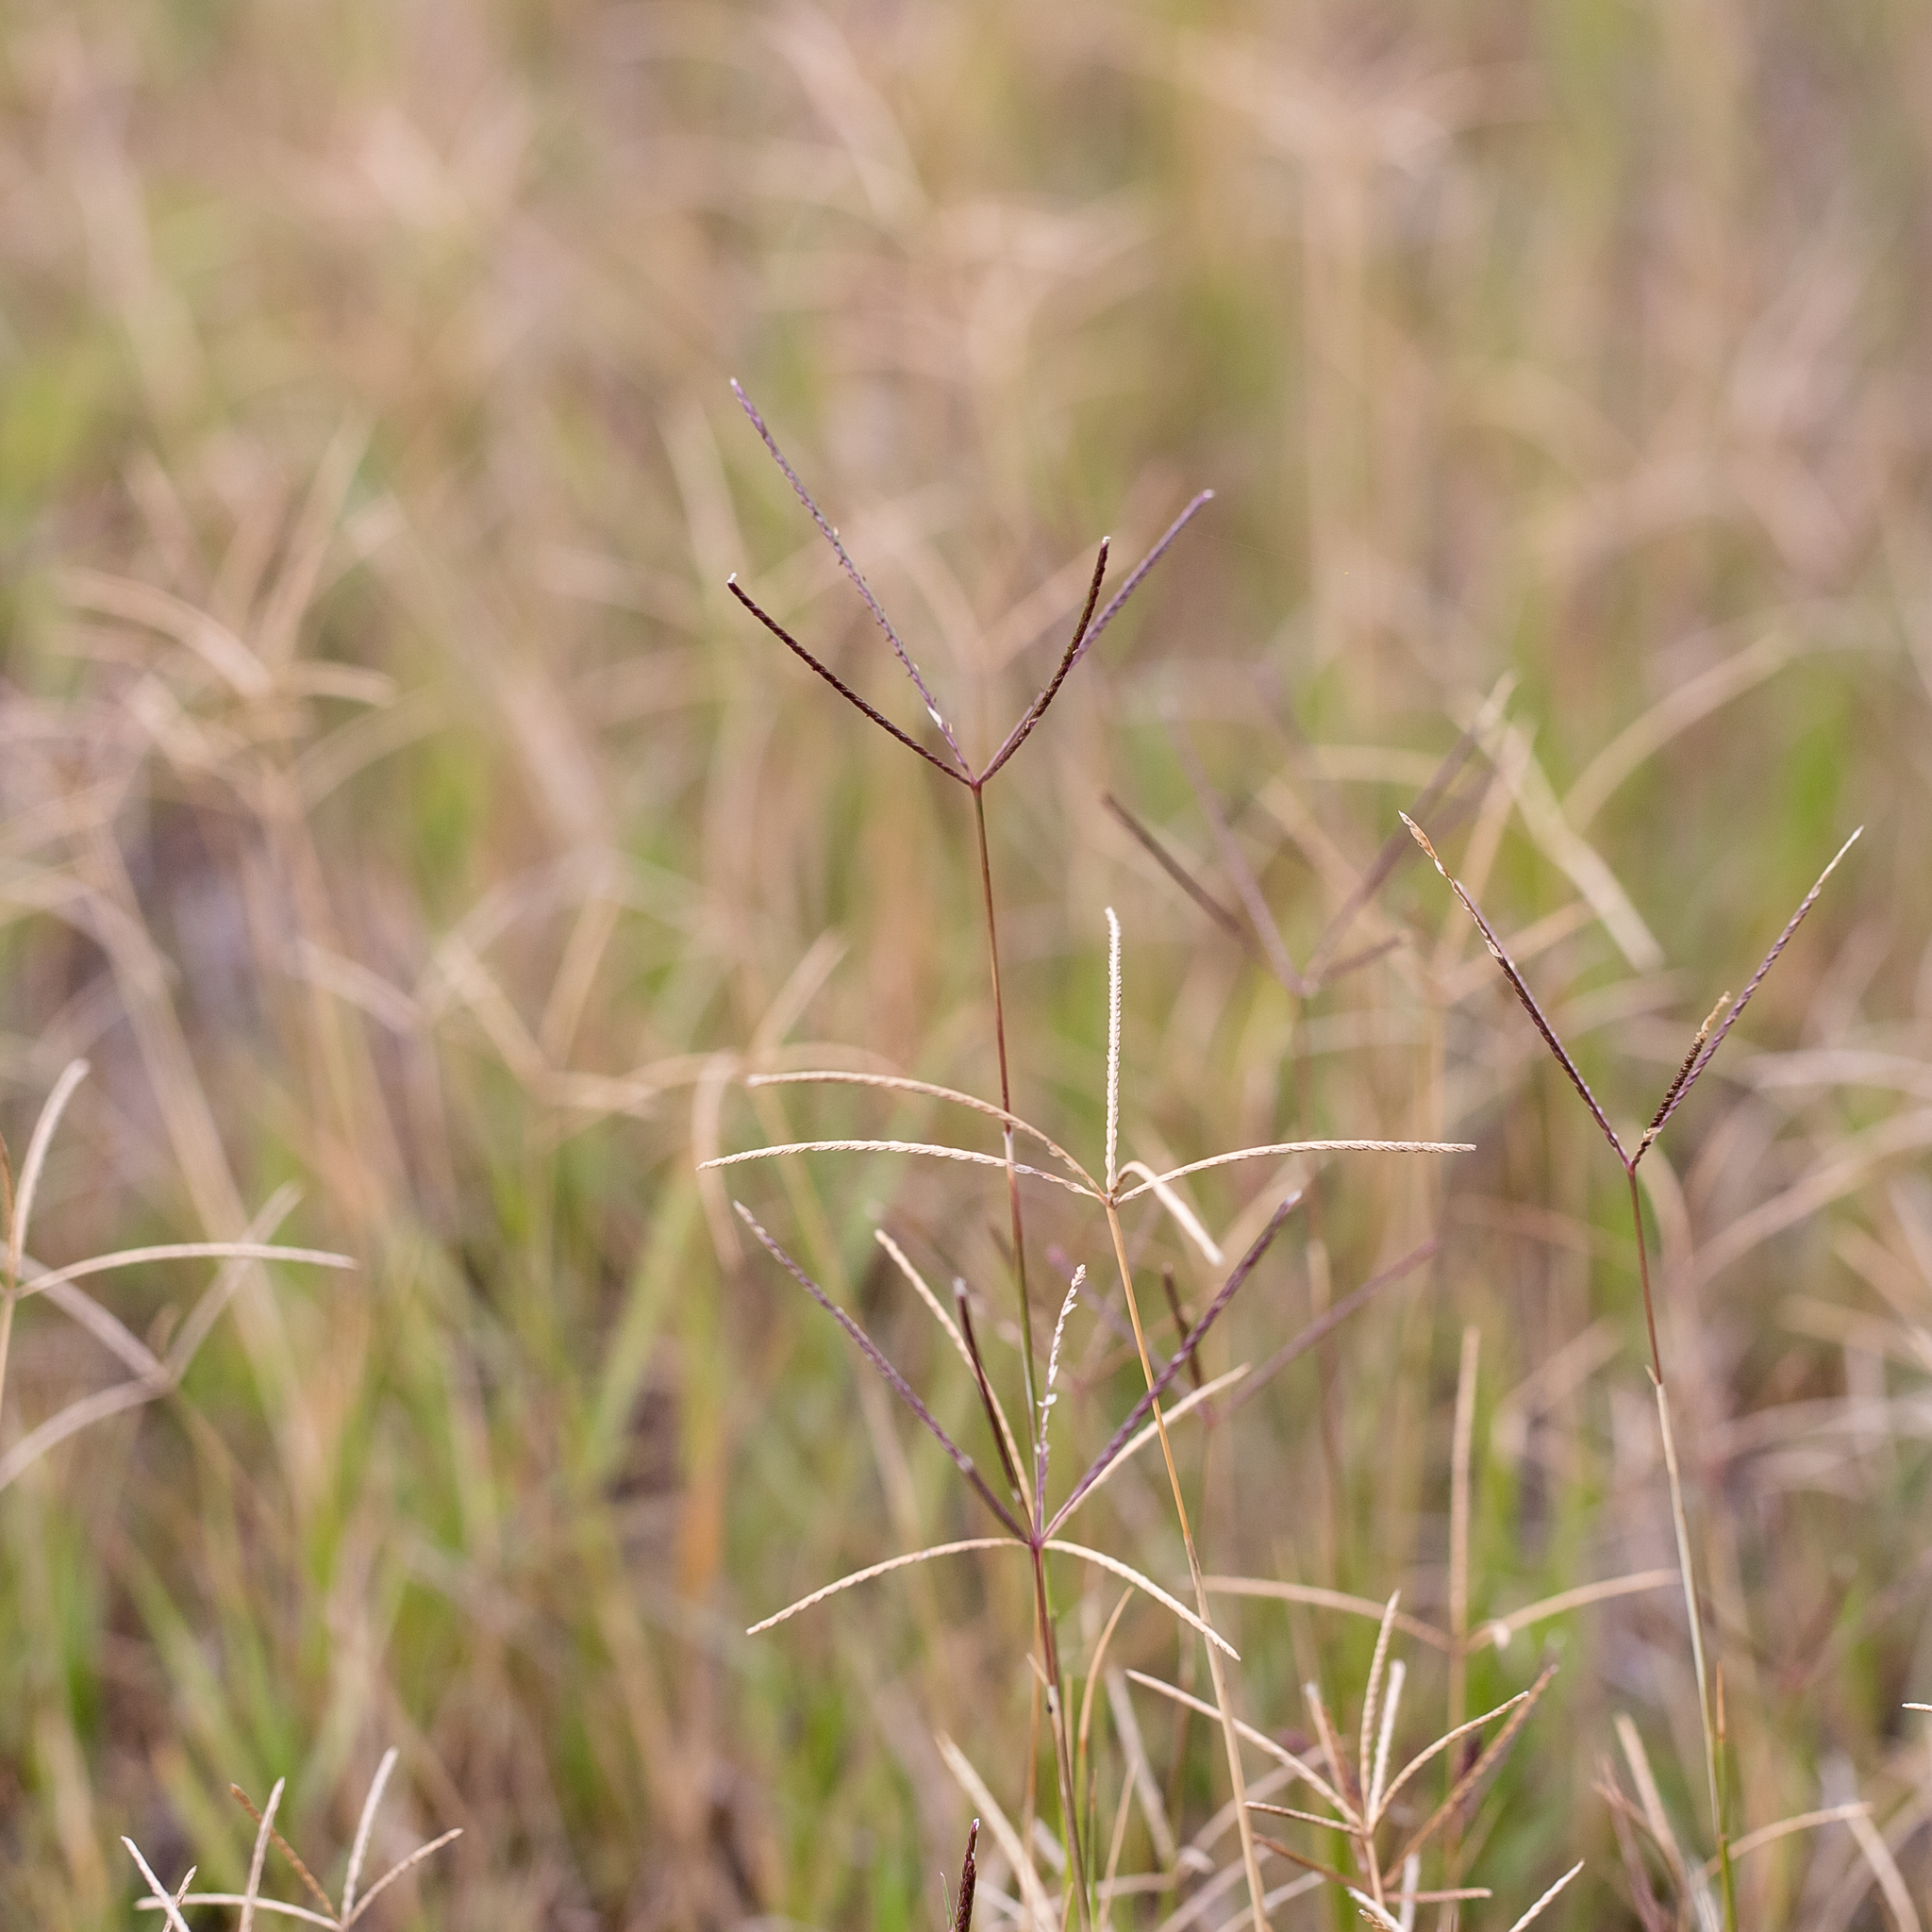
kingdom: Plantae
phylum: Tracheophyta
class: Liliopsida
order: Poales
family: Poaceae
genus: Cynodon
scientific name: Cynodon dactylon
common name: Bermuda grass
